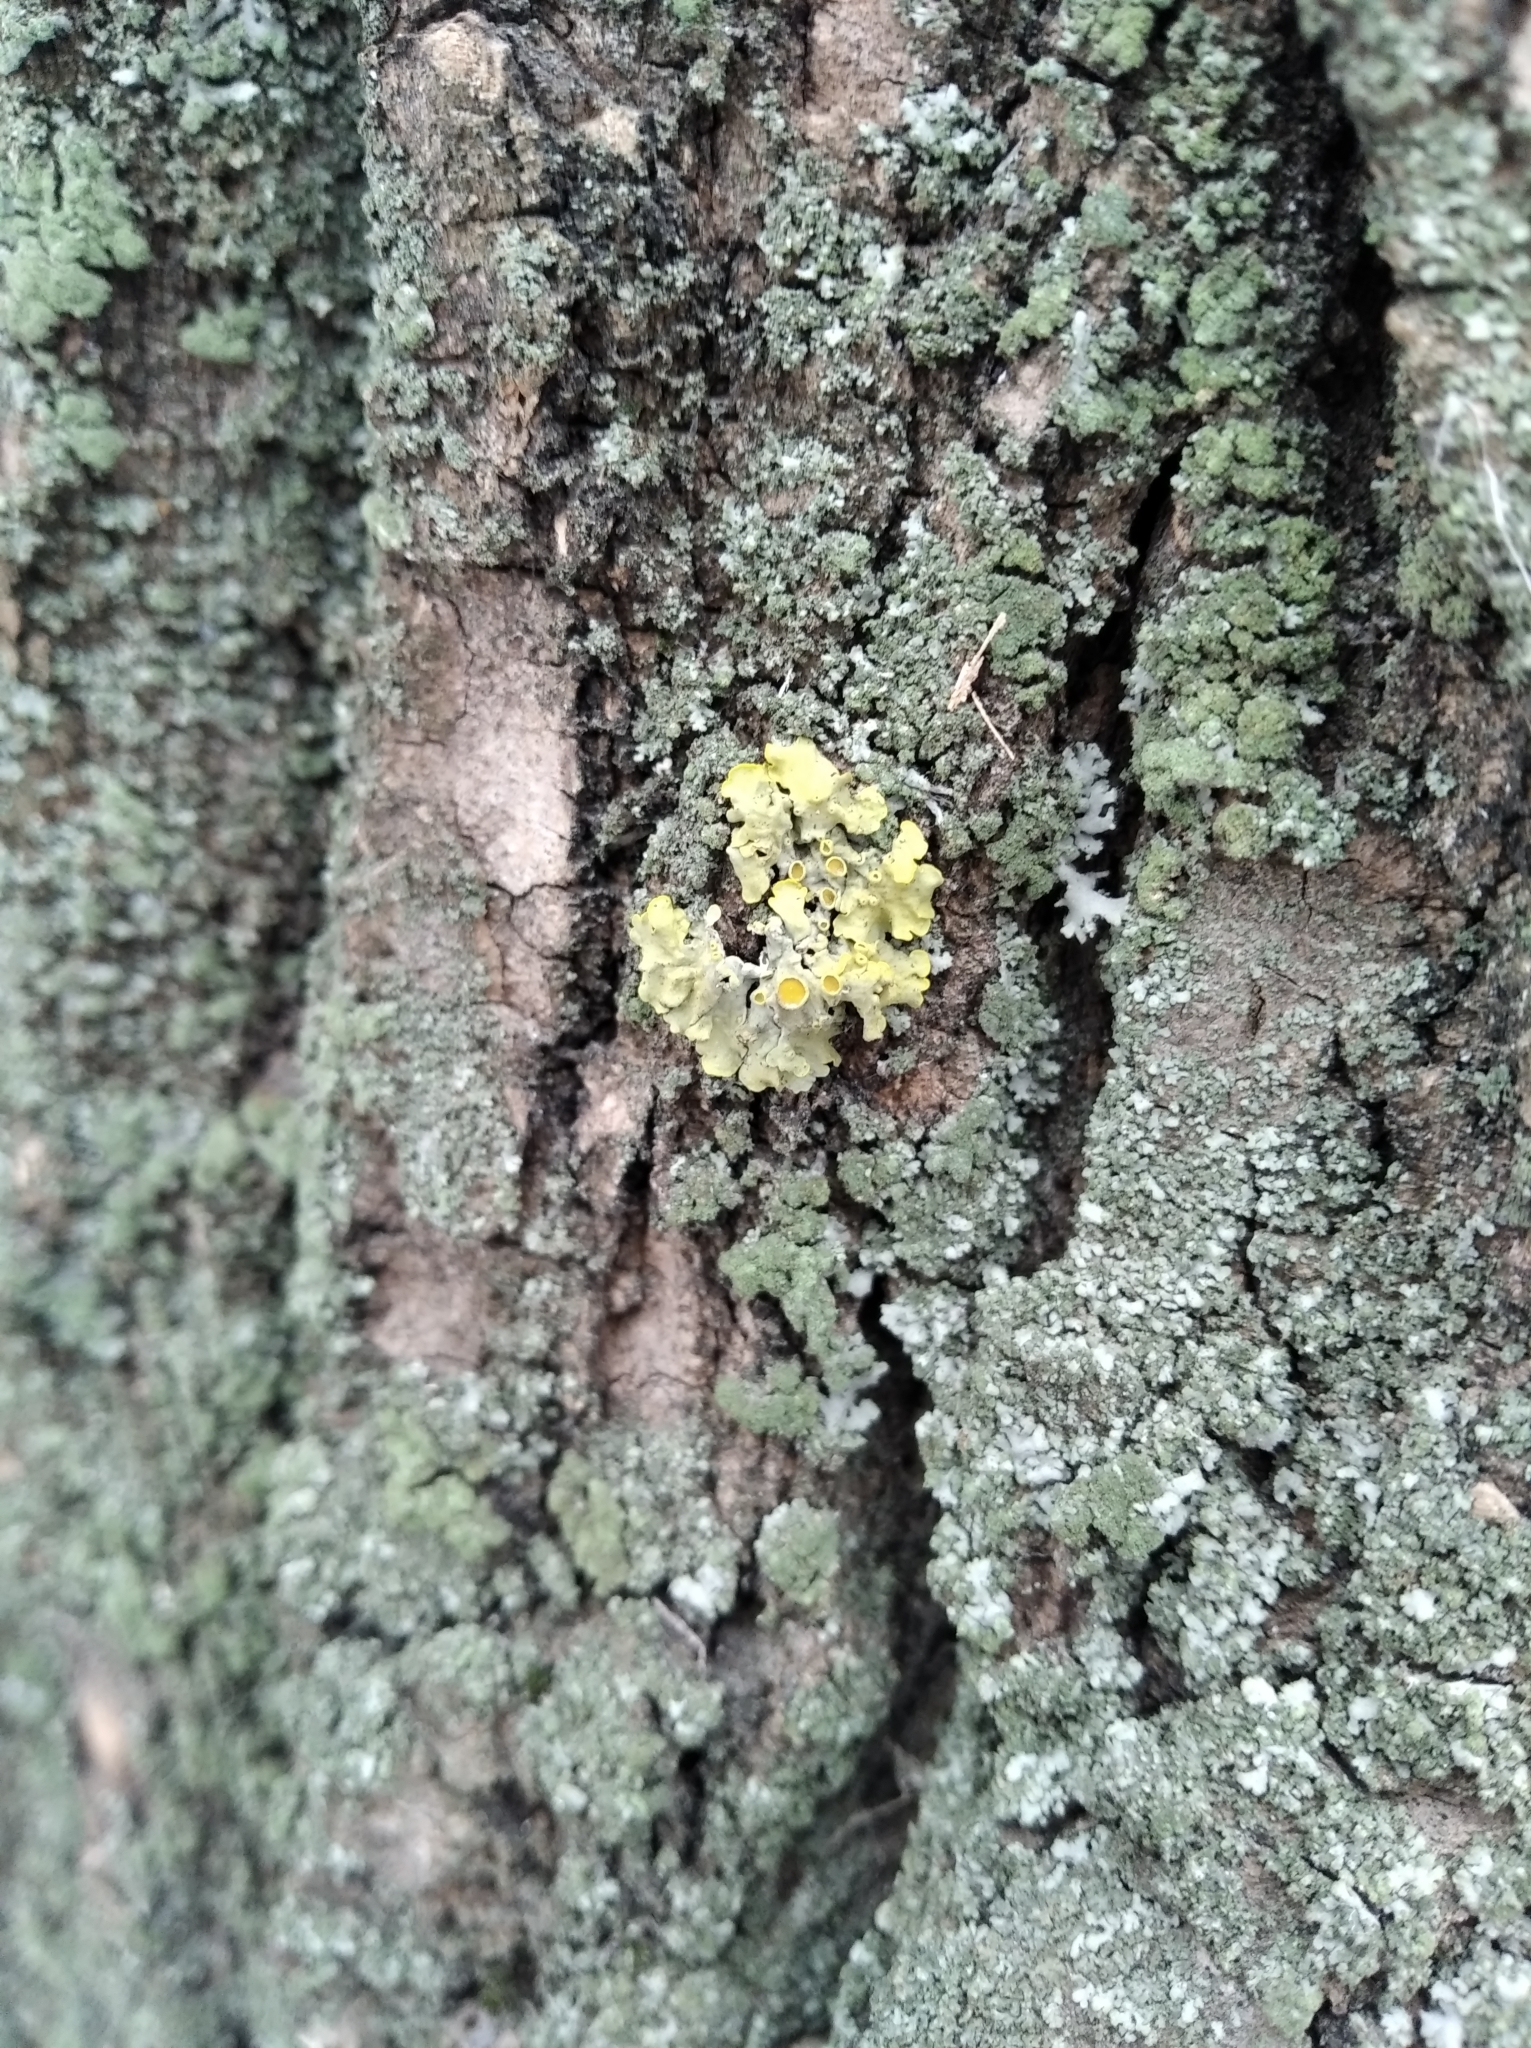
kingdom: Fungi
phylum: Ascomycota
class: Lecanoromycetes
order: Teloschistales
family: Teloschistaceae
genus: Xanthoria
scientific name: Xanthoria parietina
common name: Common orange lichen
